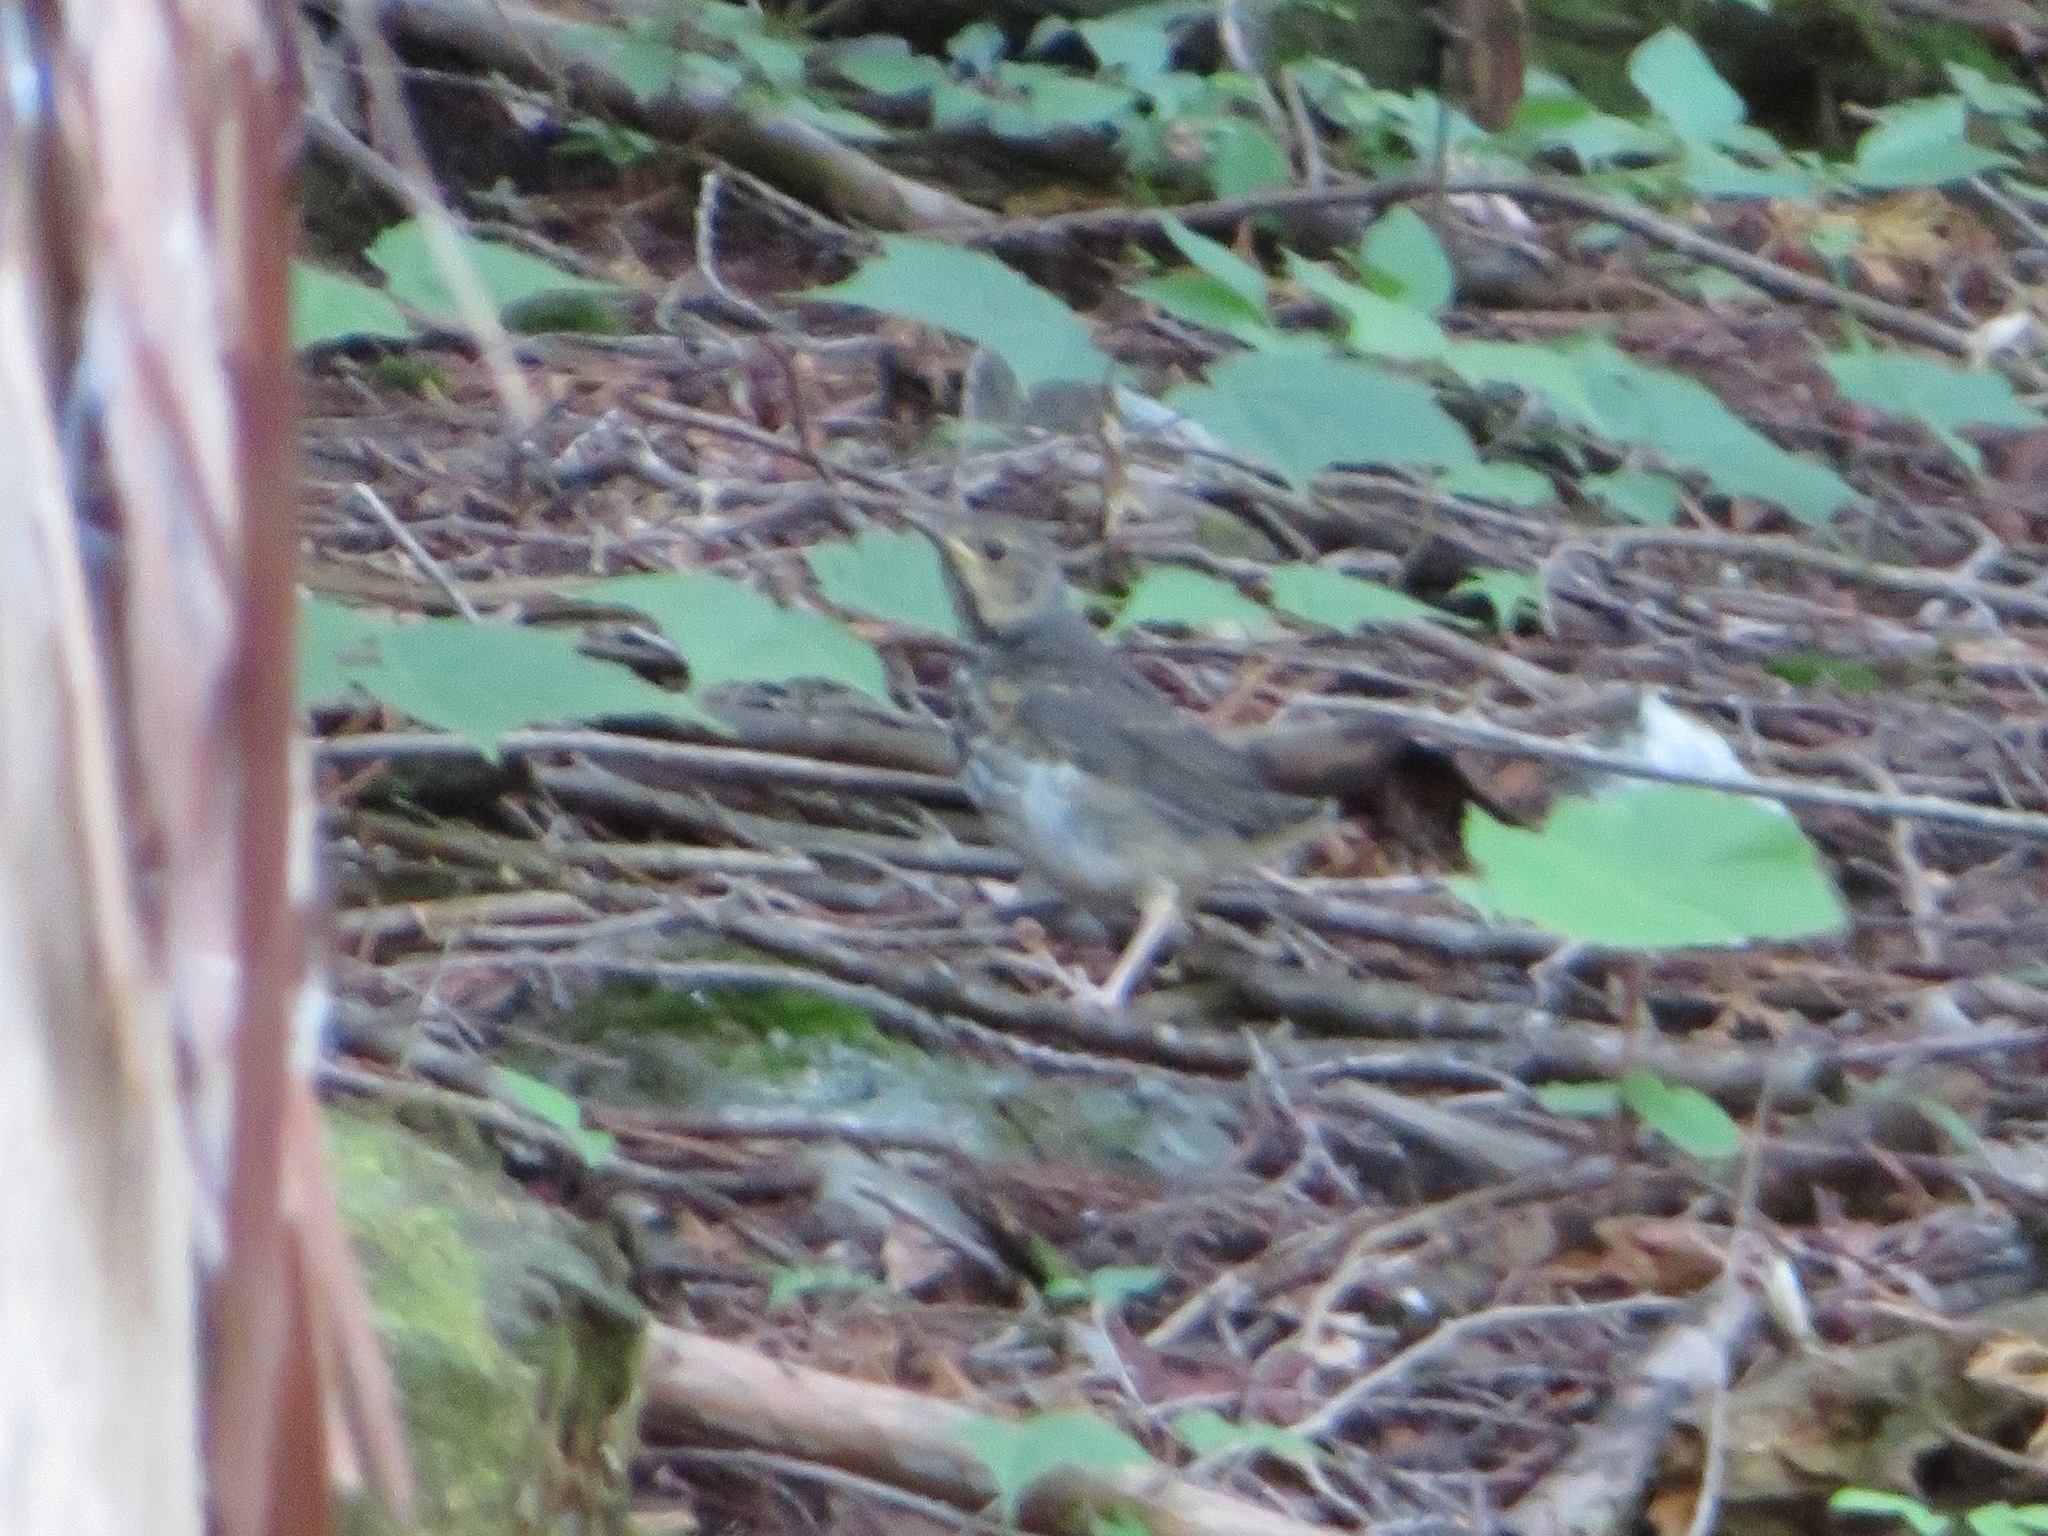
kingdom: Animalia
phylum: Chordata
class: Aves
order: Passeriformes
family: Turdidae
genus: Turdus
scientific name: Turdus cardis
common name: Japanese thrush
